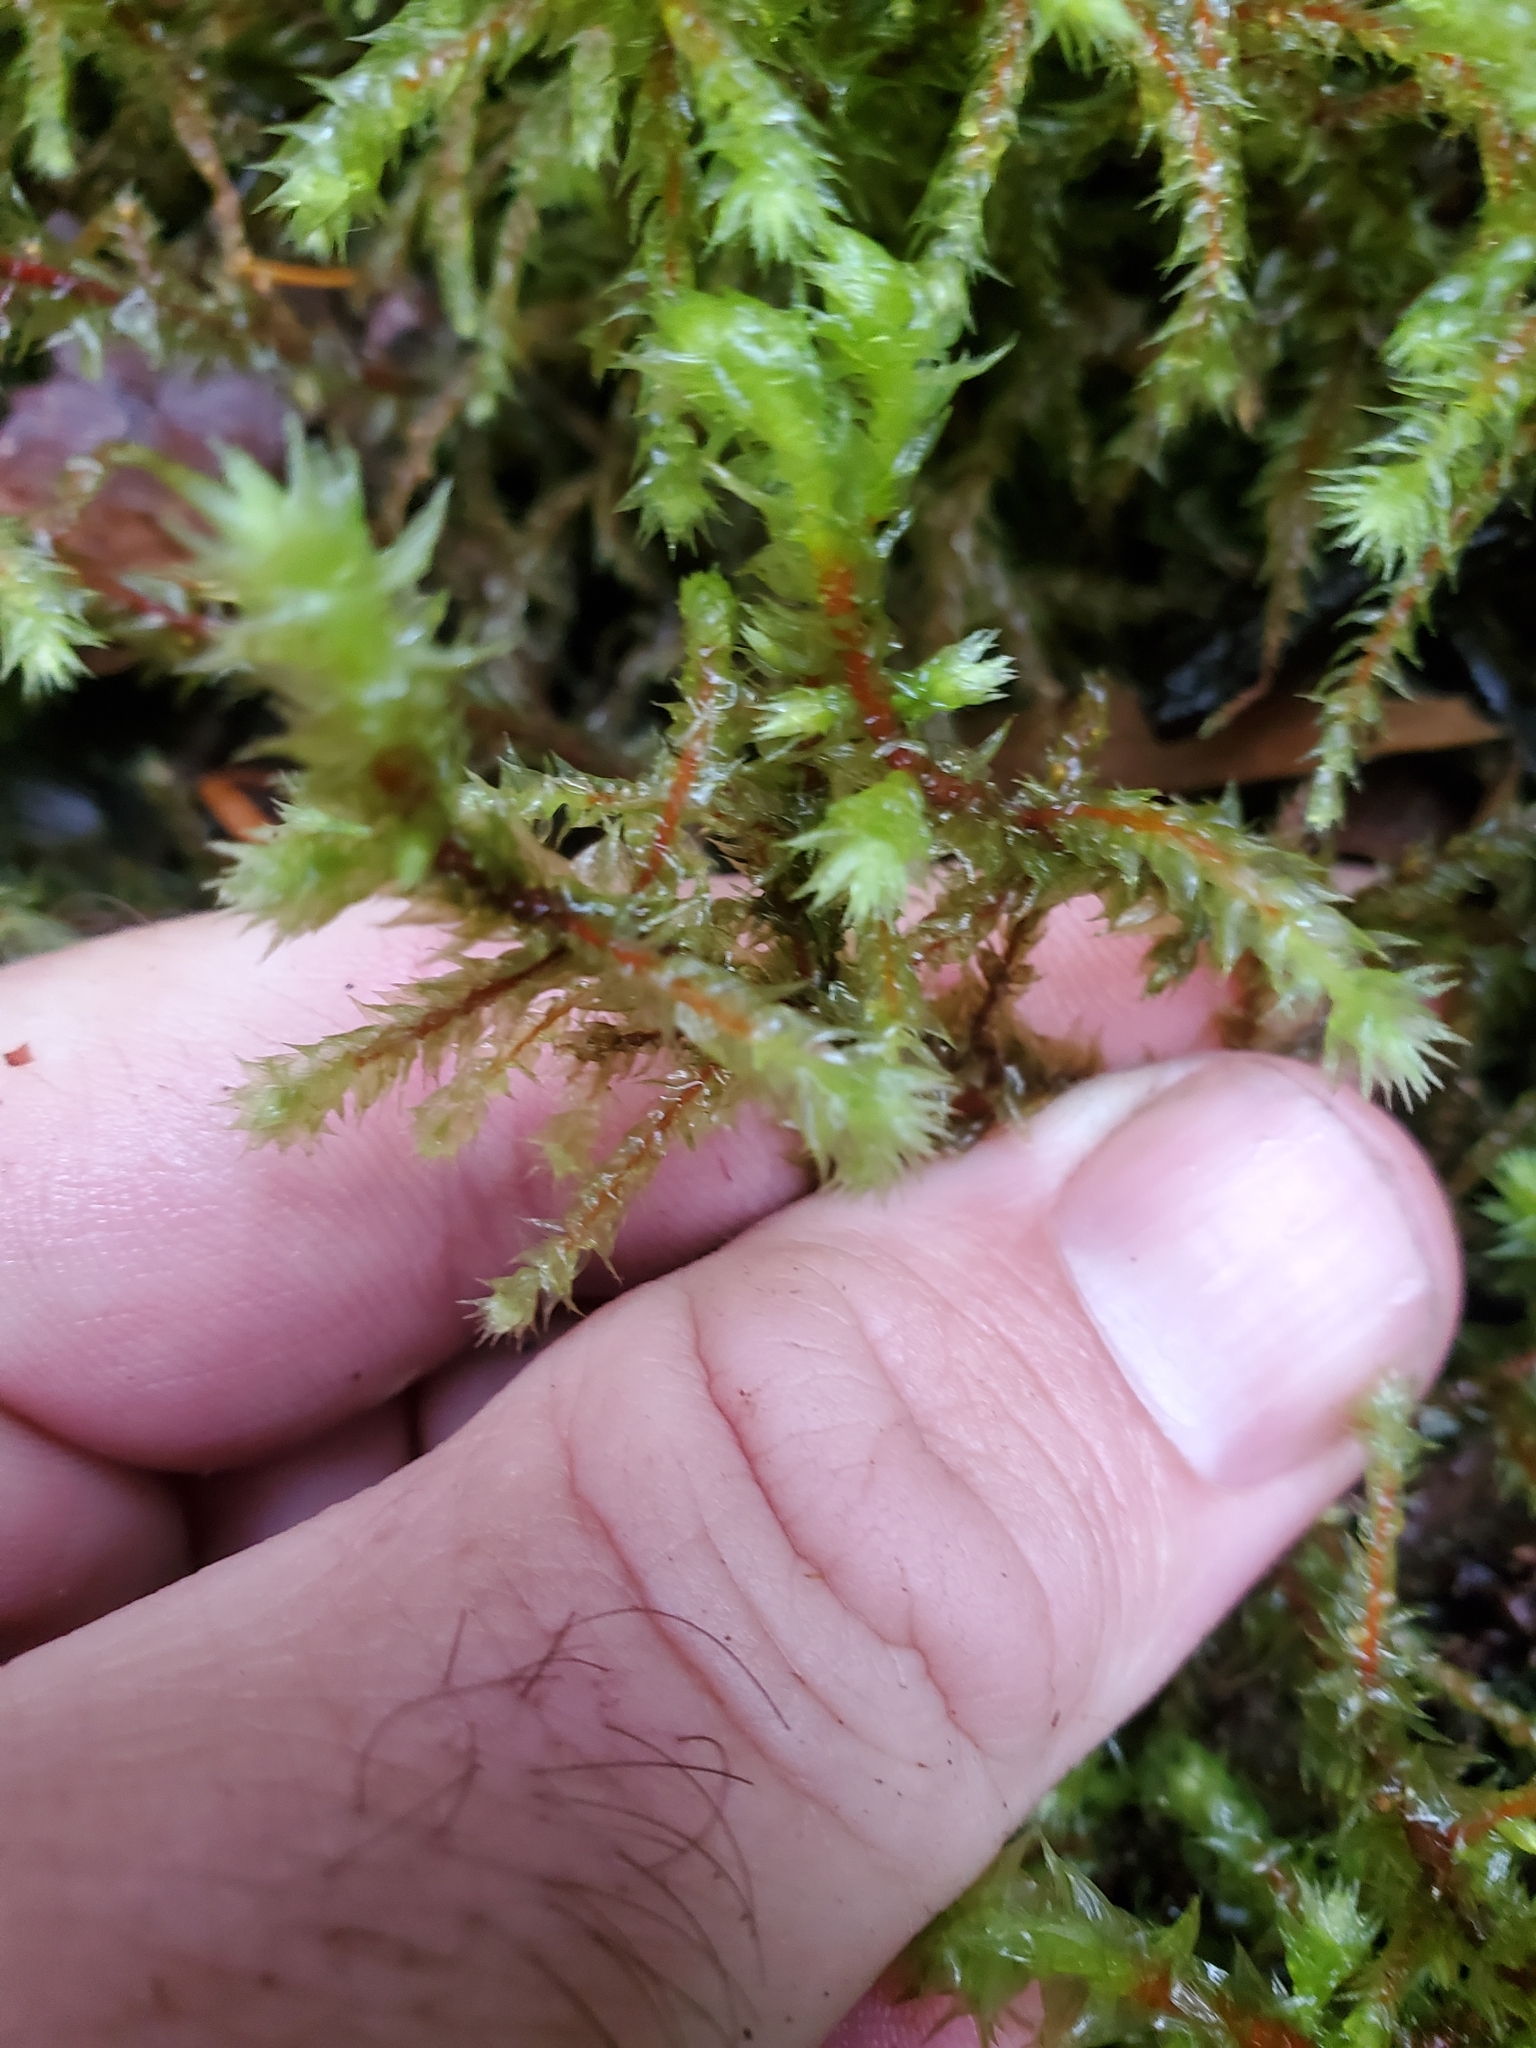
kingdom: Plantae
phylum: Bryophyta
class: Bryopsida
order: Hypnales
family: Hylocomiaceae
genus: Hylocomiadelphus
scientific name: Hylocomiadelphus triquetrus
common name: Rough goose neck moss
